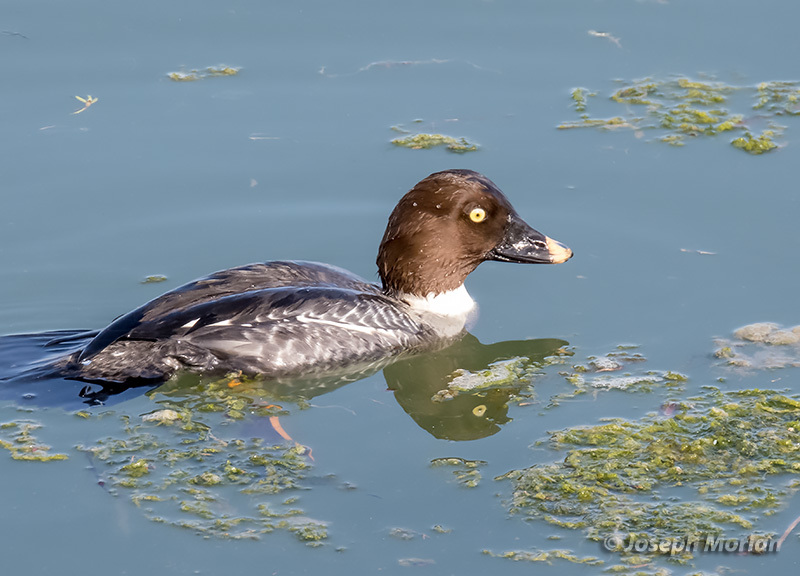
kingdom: Animalia
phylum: Chordata
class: Aves
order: Anseriformes
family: Anatidae
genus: Bucephala
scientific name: Bucephala clangula
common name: Common goldeneye
